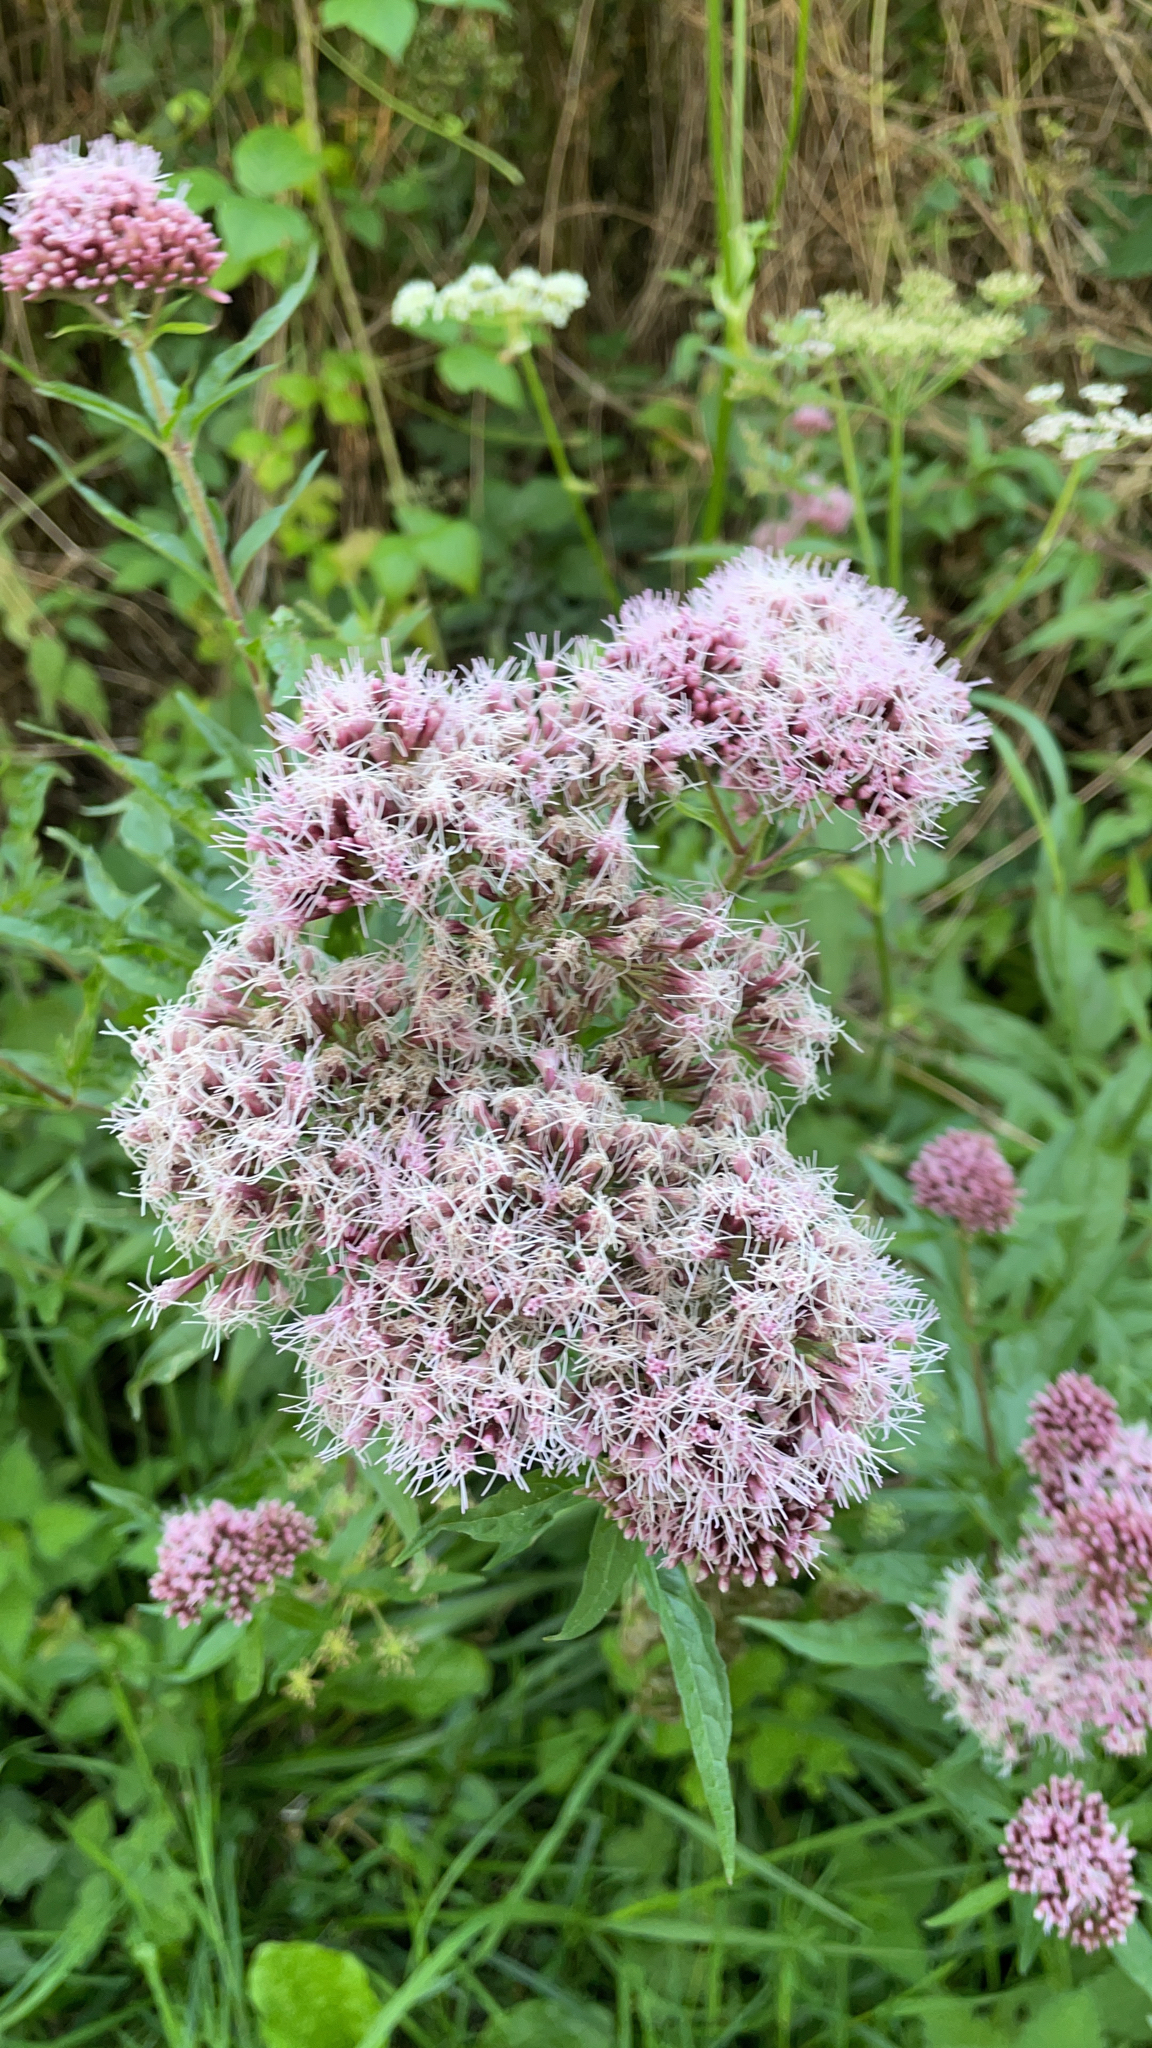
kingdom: Plantae
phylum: Tracheophyta
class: Magnoliopsida
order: Asterales
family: Asteraceae
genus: Eupatorium
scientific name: Eupatorium cannabinum
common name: Hemp-agrimony
